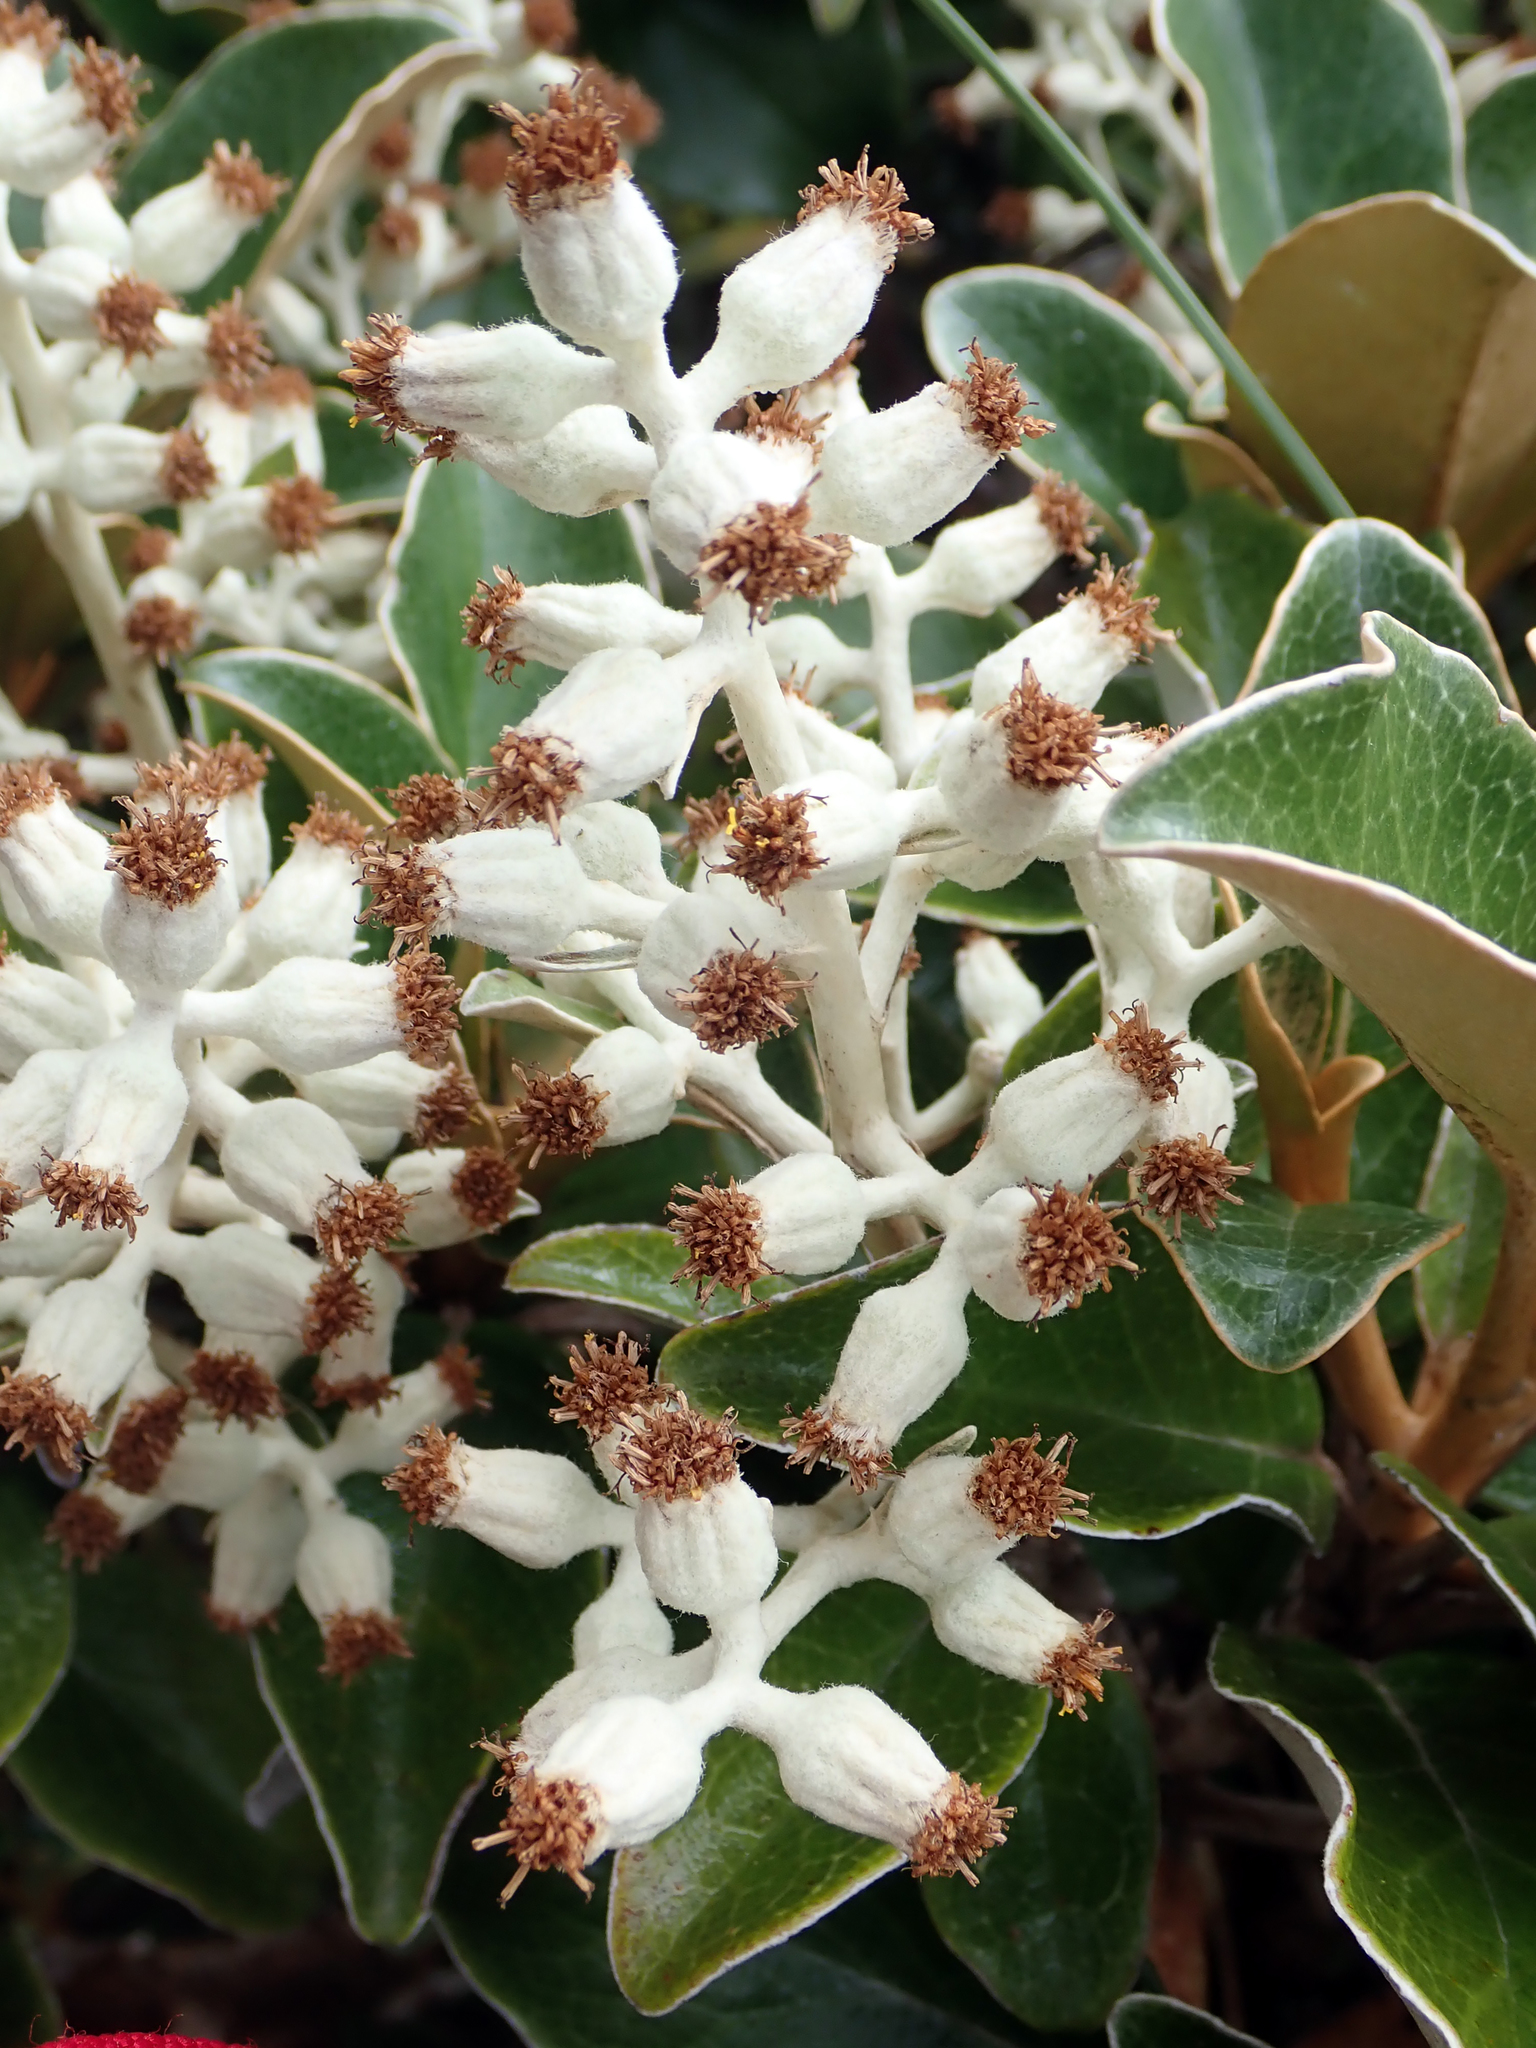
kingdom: Plantae
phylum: Tracheophyta
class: Magnoliopsida
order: Asterales
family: Asteraceae
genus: Brachyglottis
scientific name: Brachyglottis elaeagnifolia
